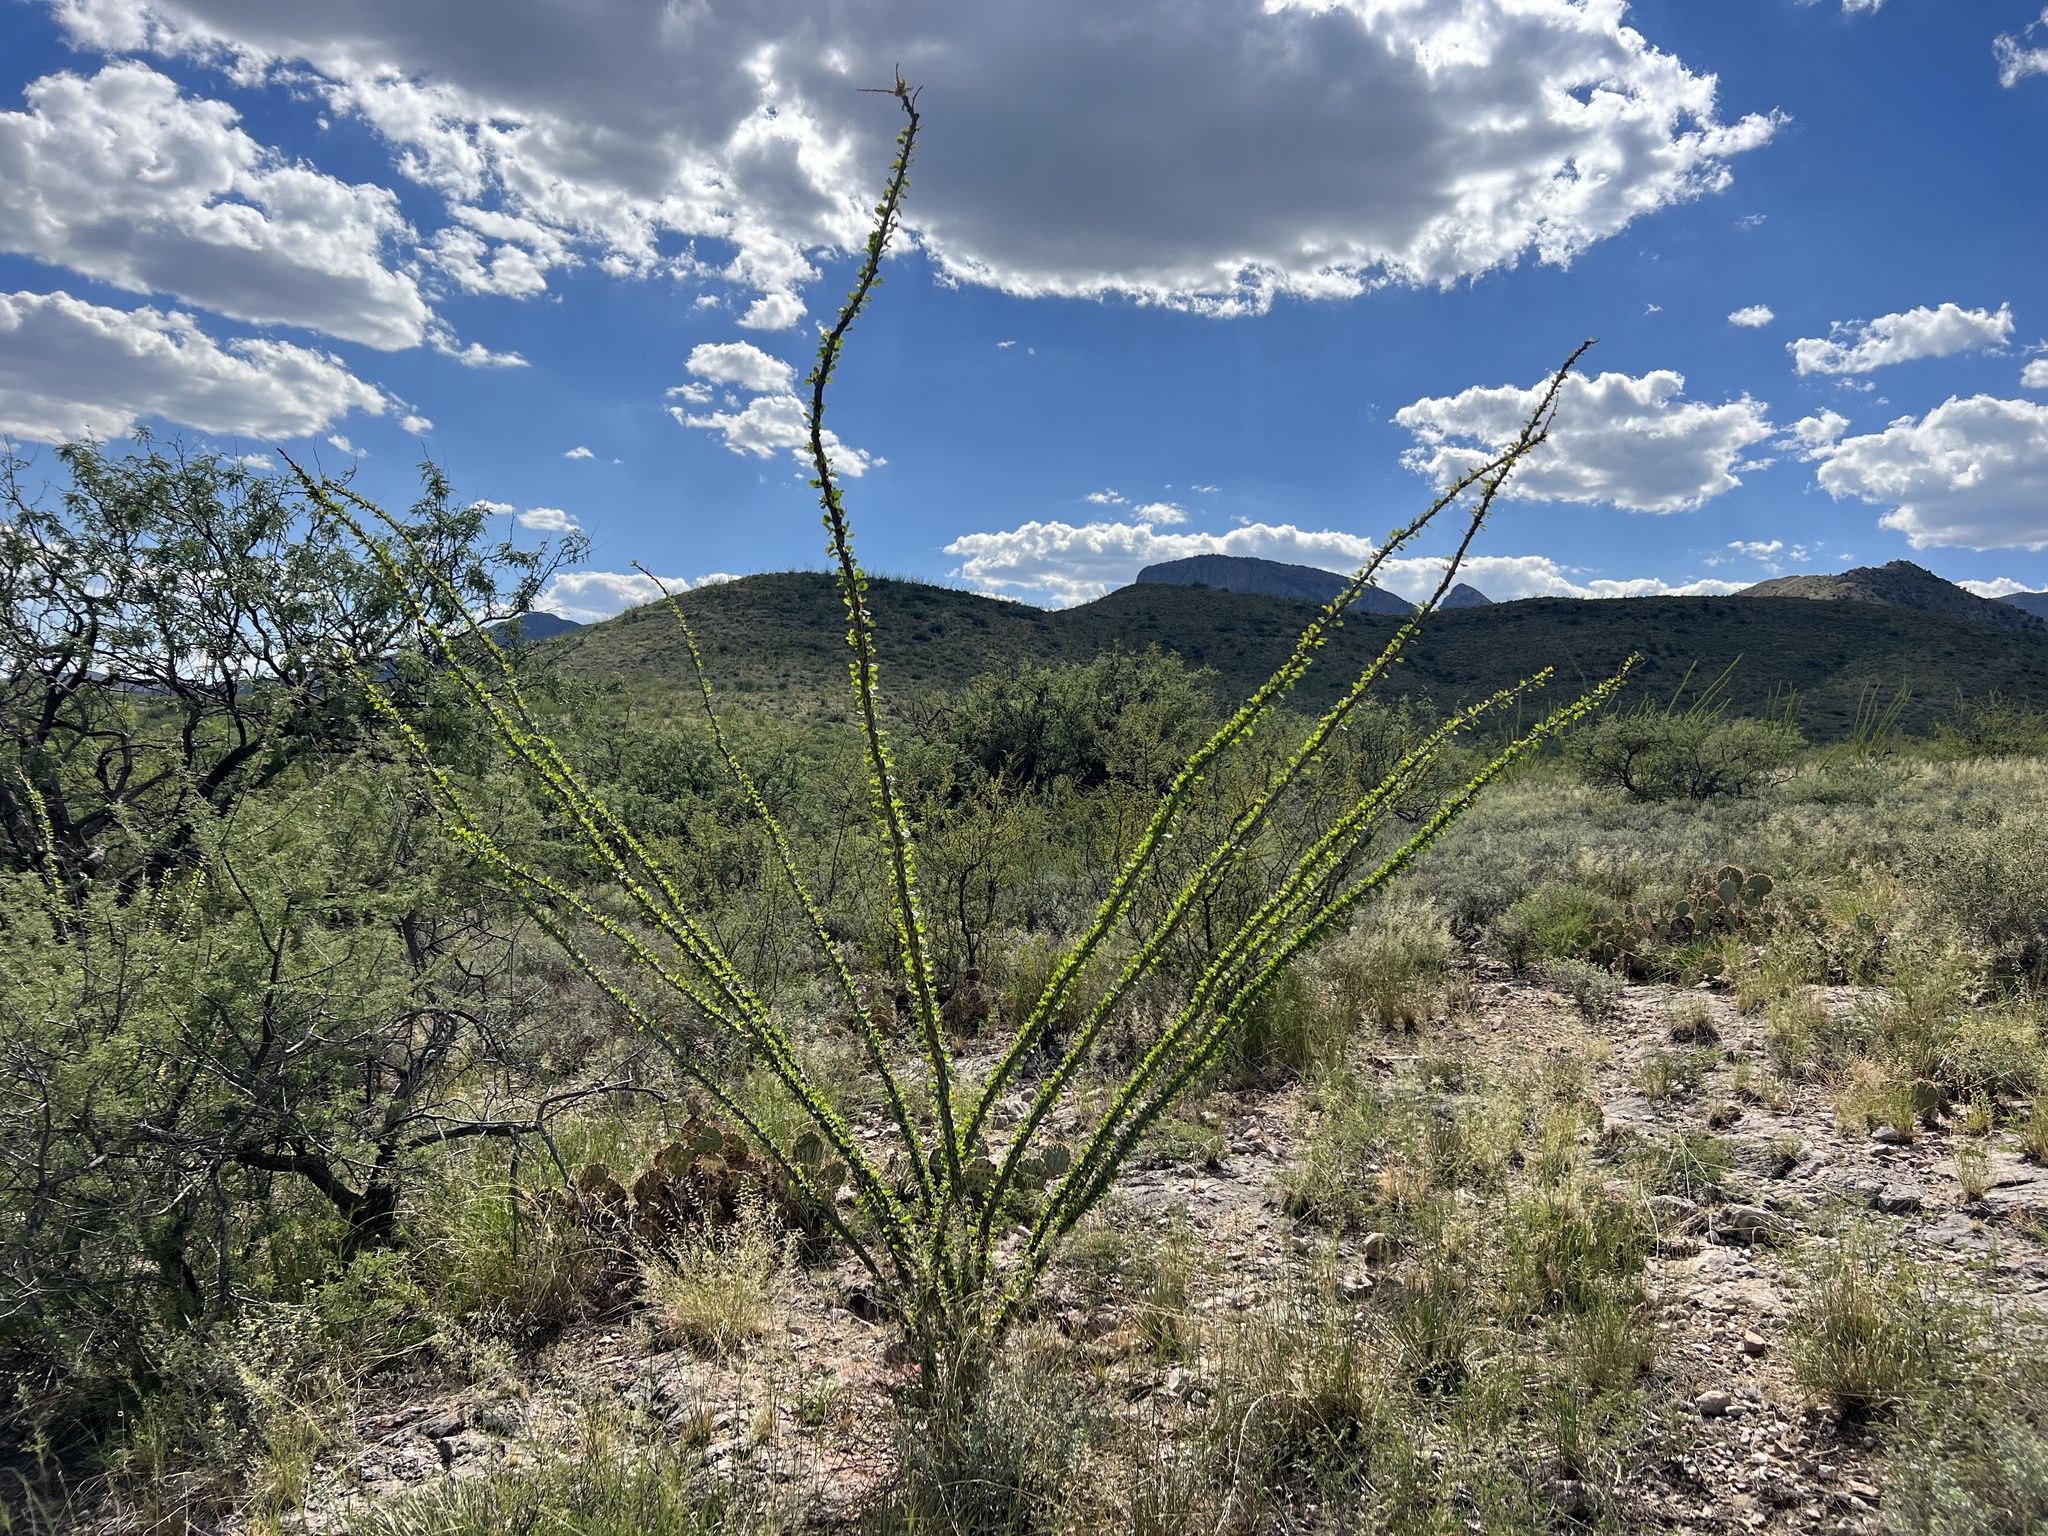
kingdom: Plantae
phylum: Tracheophyta
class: Magnoliopsida
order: Ericales
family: Fouquieriaceae
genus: Fouquieria
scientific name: Fouquieria splendens
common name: Vine-cactus
